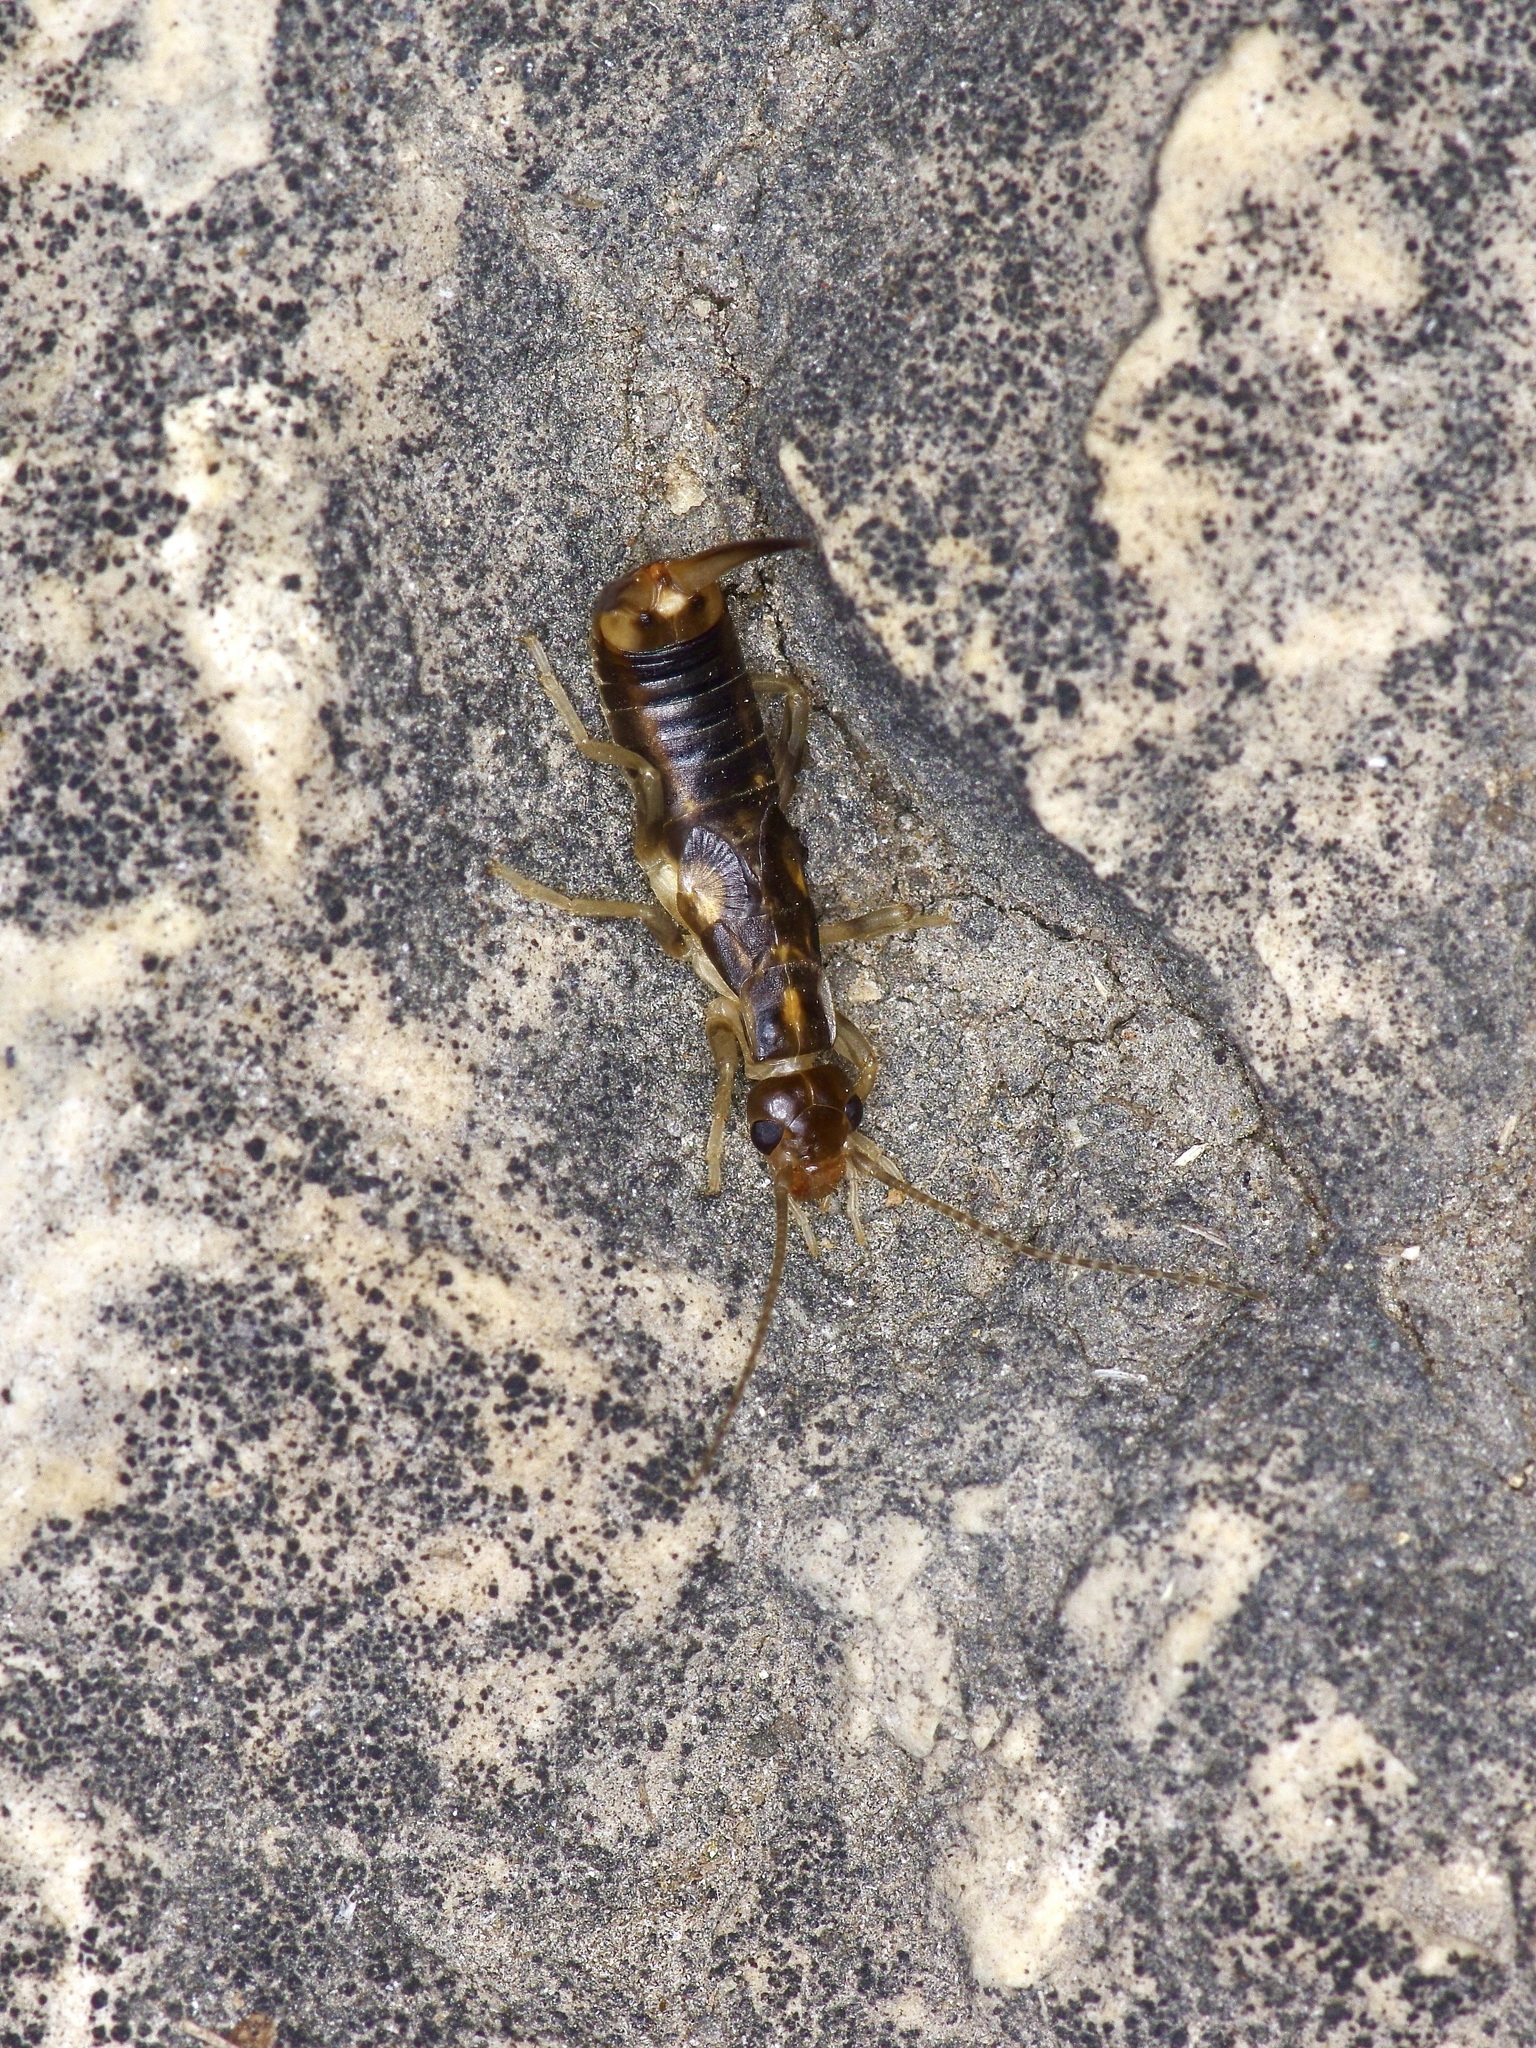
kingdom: Animalia
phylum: Arthropoda
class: Insecta
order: Dermaptera
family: Labiduridae
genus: Labidura
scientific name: Labidura riparia
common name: Striped earwig
